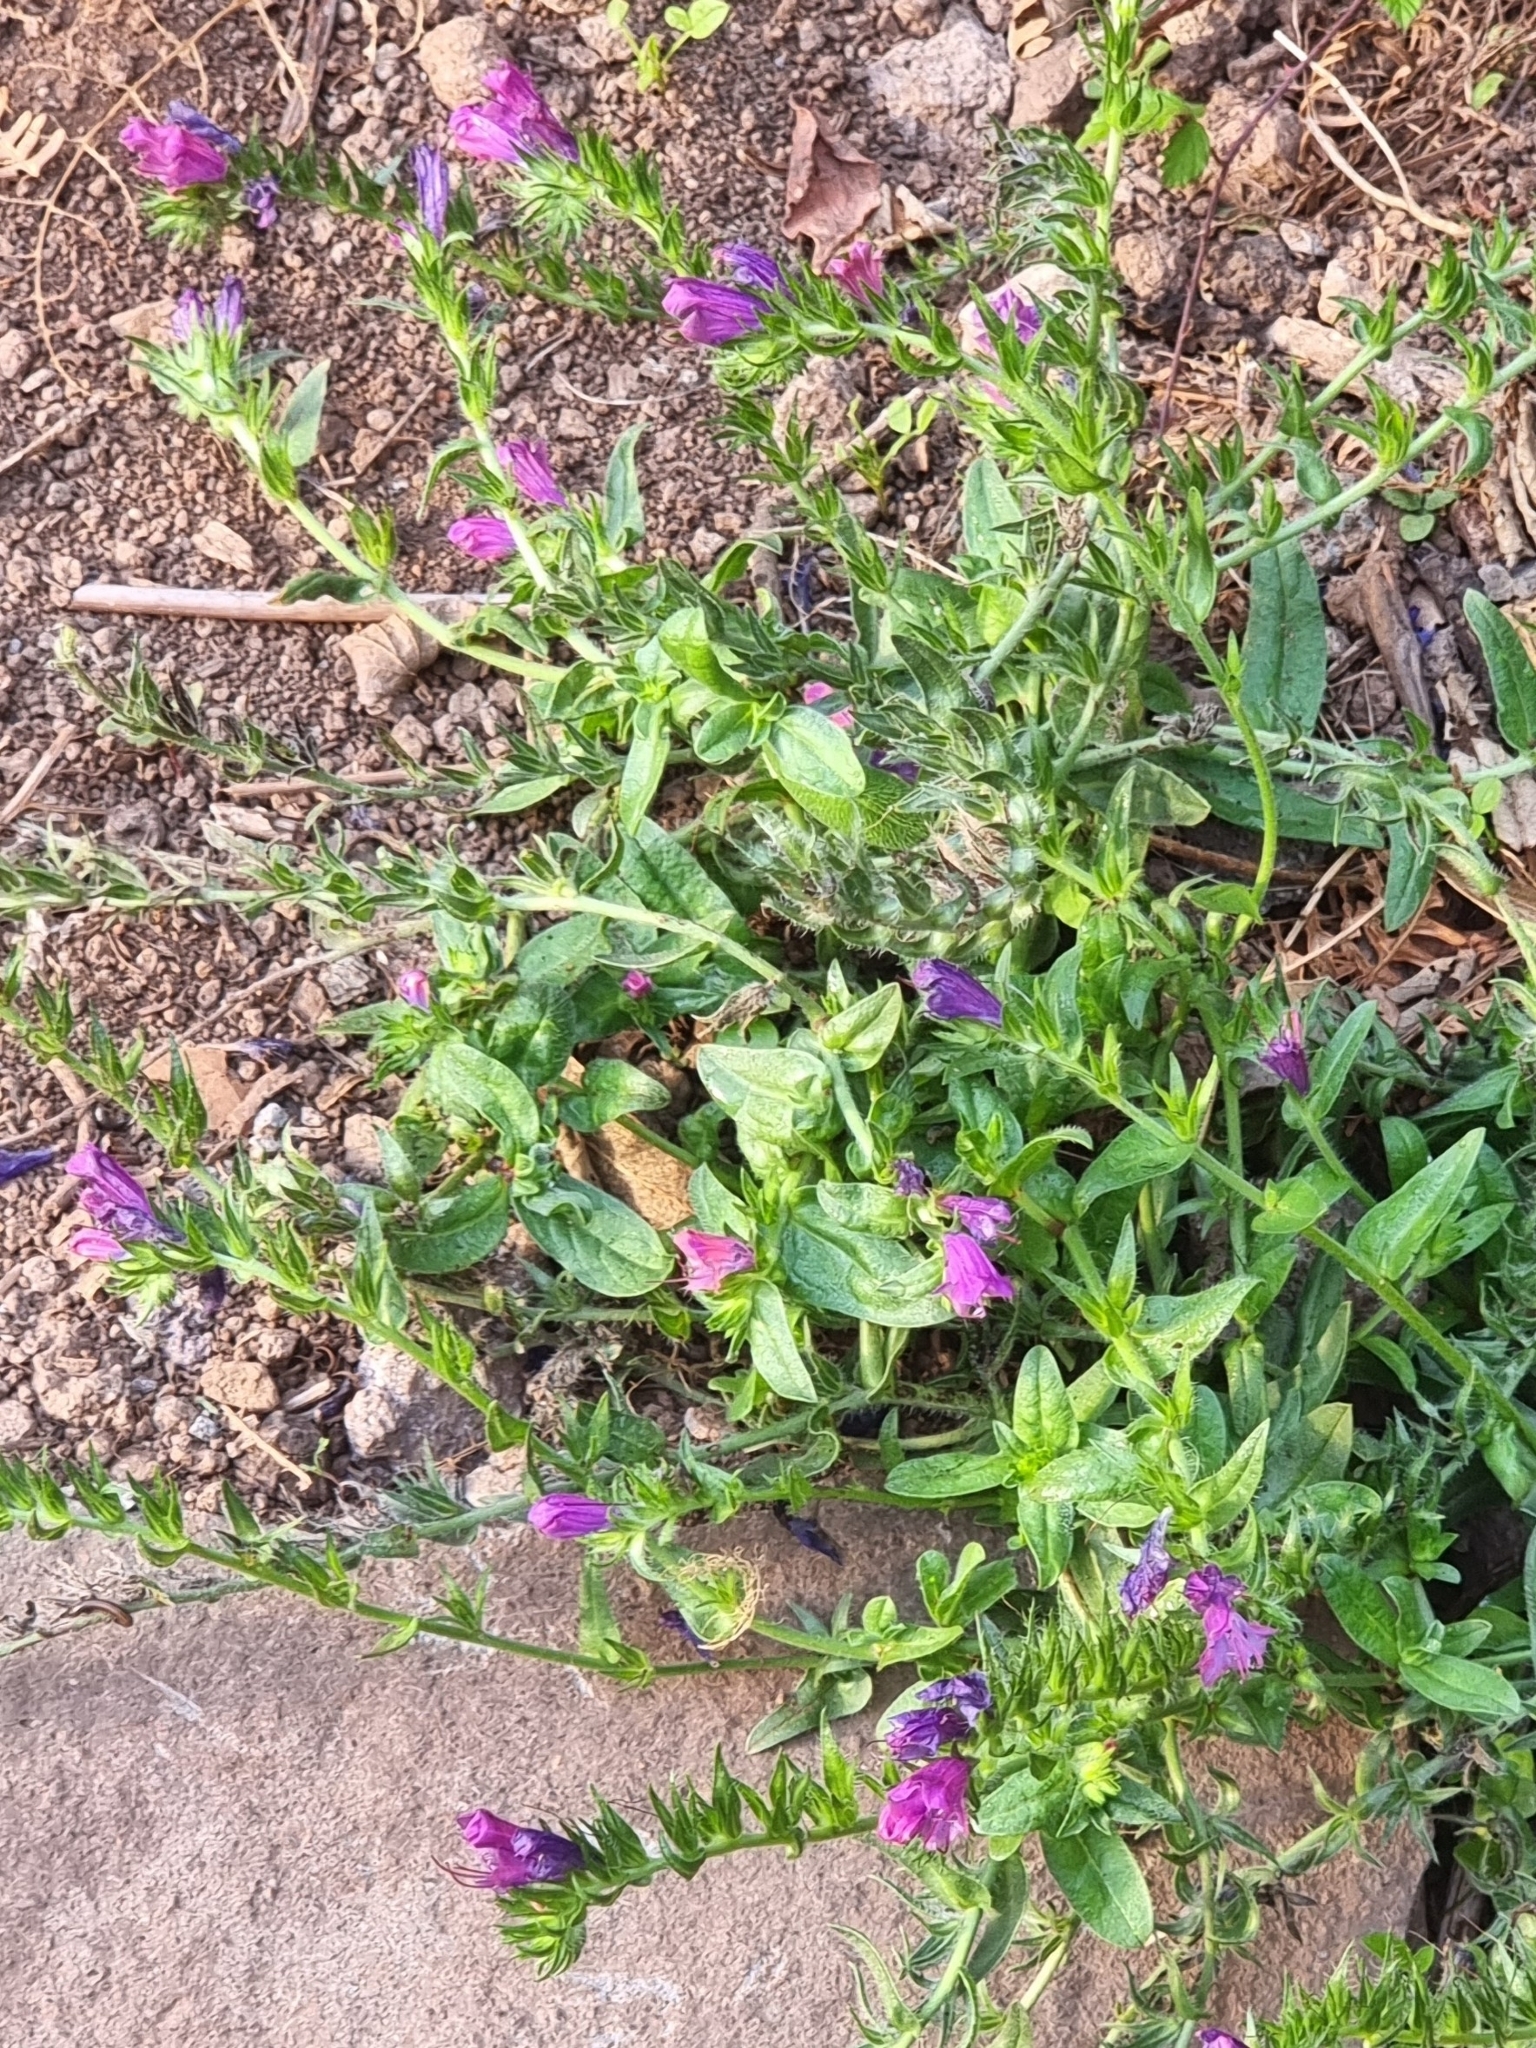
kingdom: Plantae
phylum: Tracheophyta
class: Magnoliopsida
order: Boraginales
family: Boraginaceae
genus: Echium
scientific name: Echium plantagineum
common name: Purple viper's-bugloss
